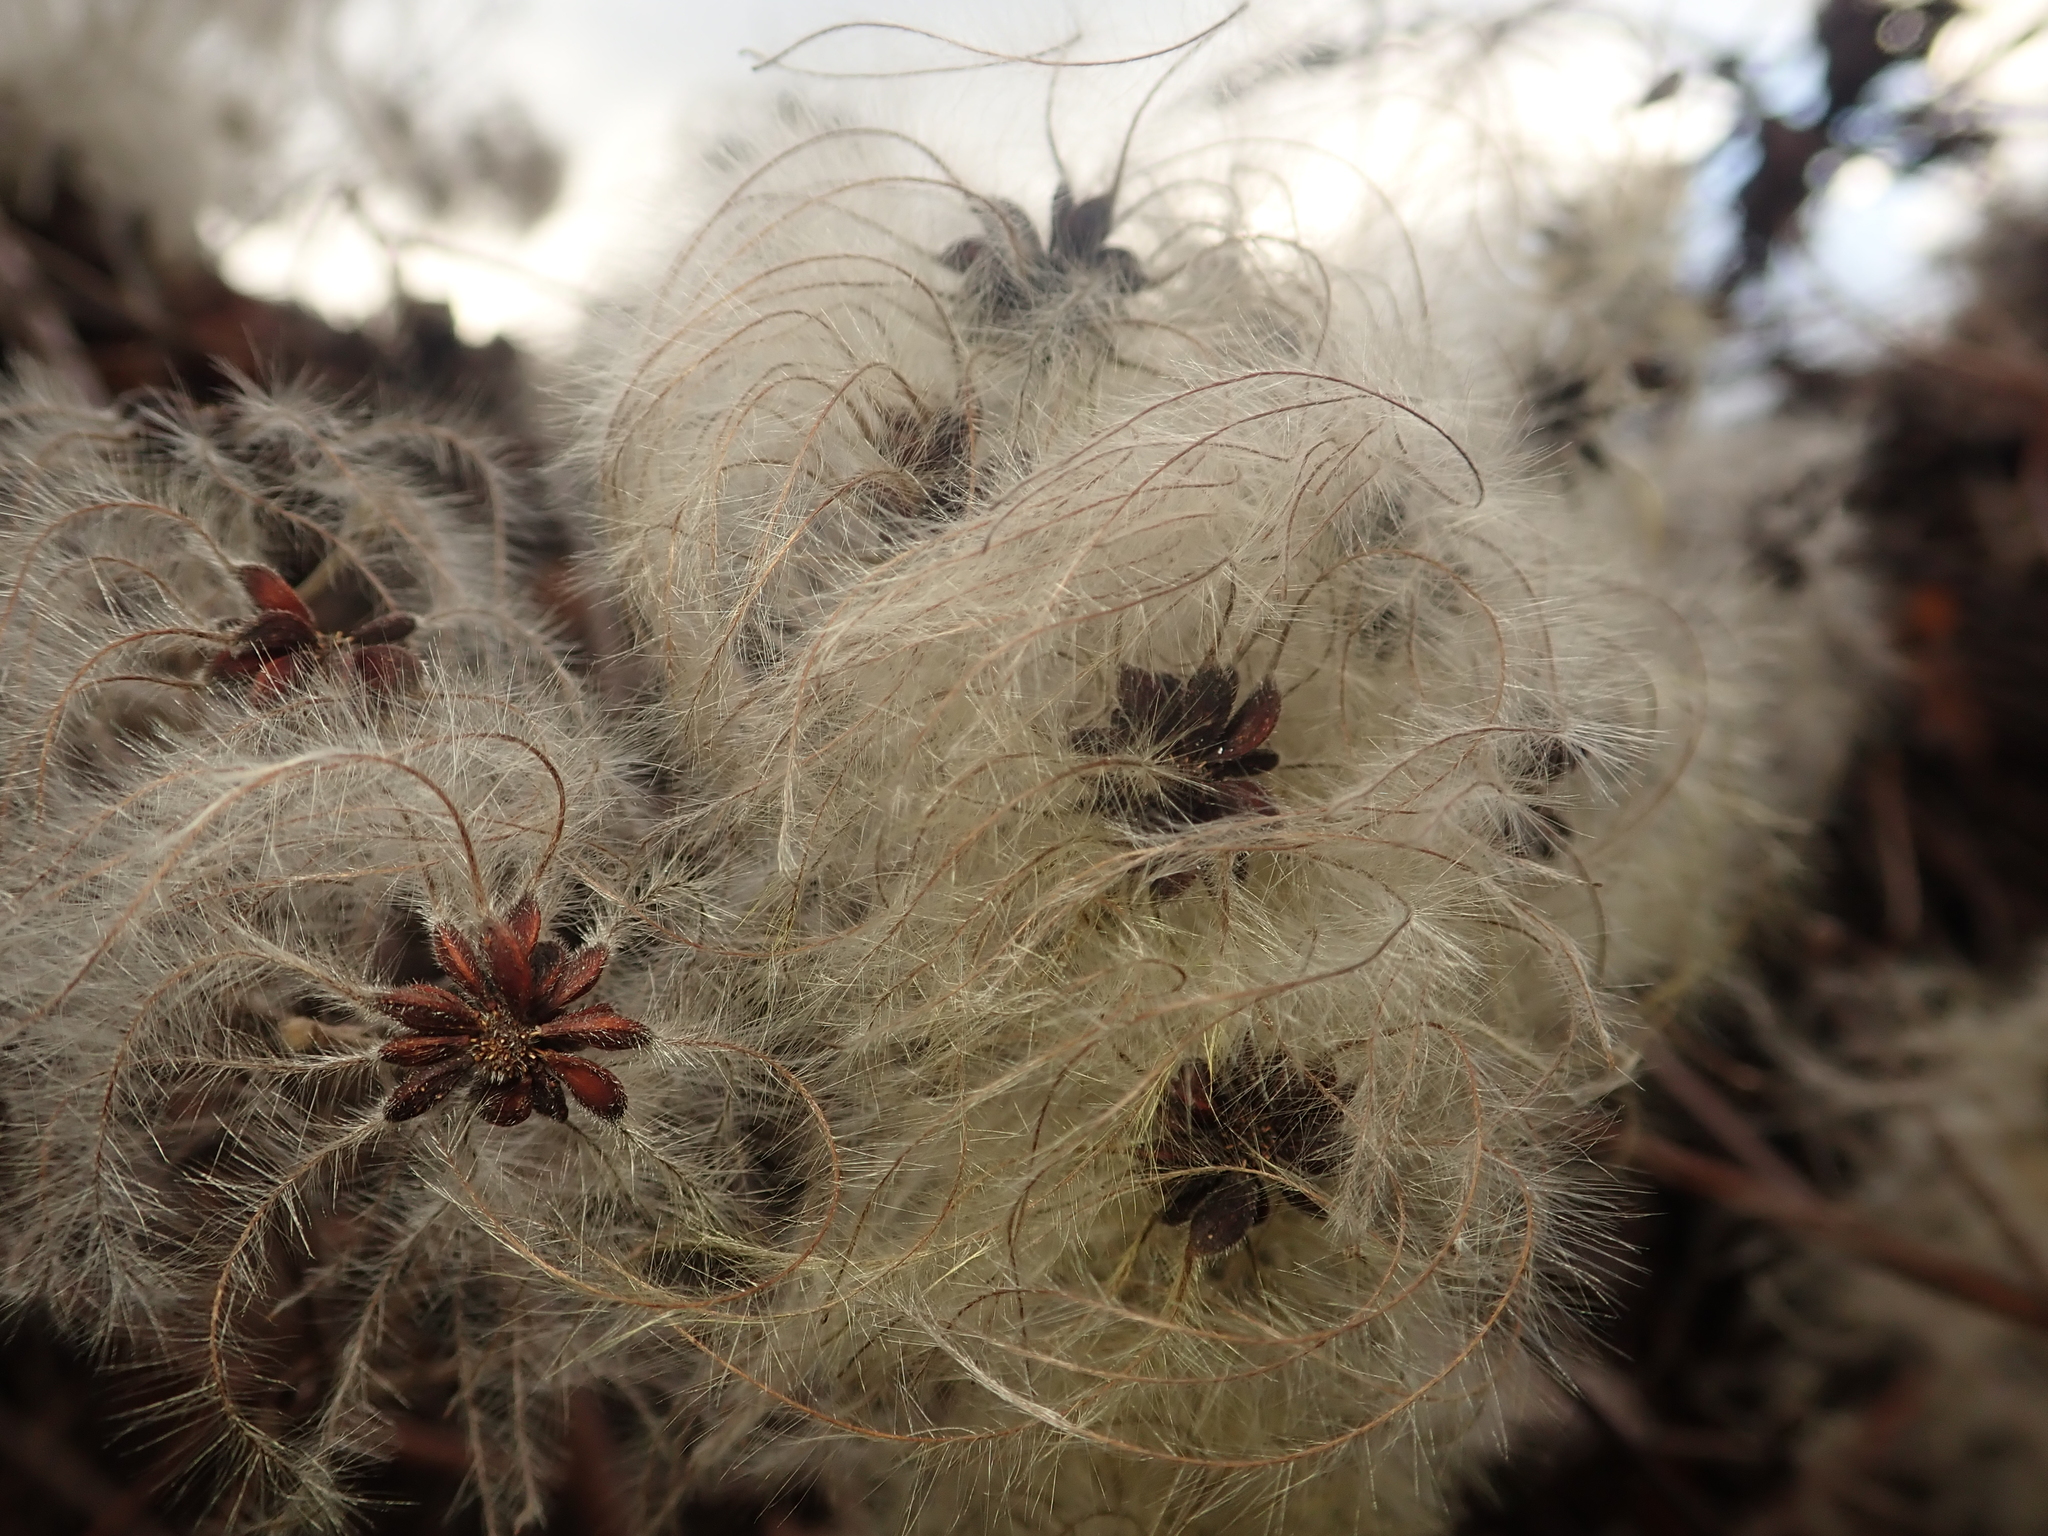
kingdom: Plantae
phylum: Tracheophyta
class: Magnoliopsida
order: Ranunculales
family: Ranunculaceae
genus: Clematis
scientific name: Clematis vitalba
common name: Evergreen clematis
